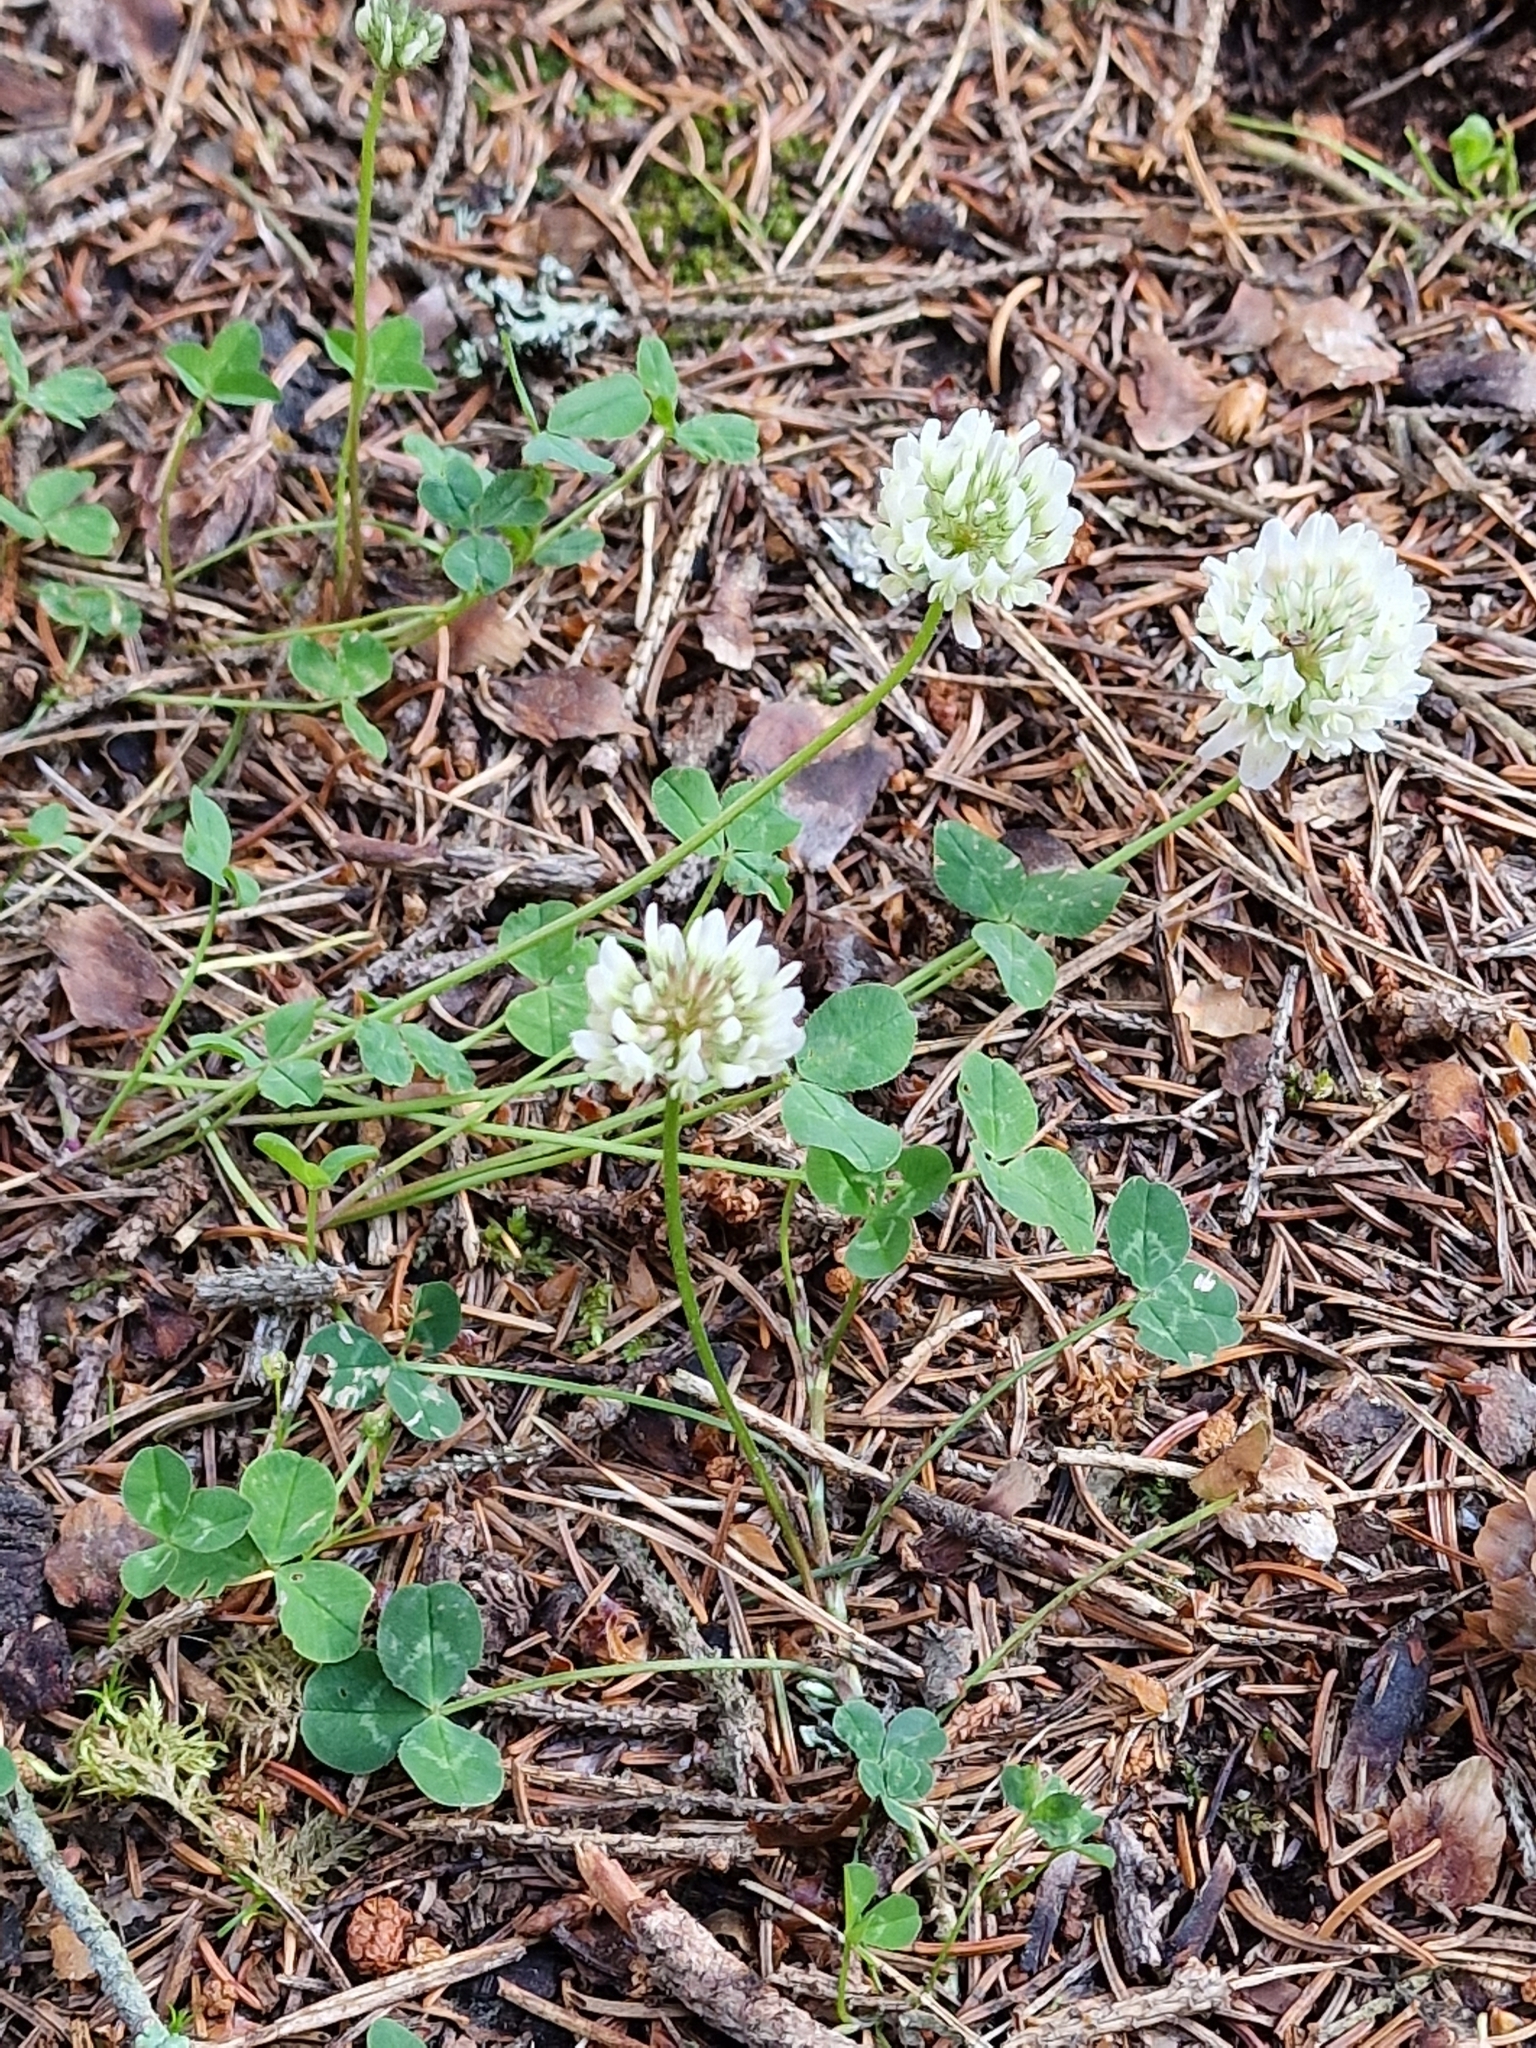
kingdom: Plantae
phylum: Tracheophyta
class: Magnoliopsida
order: Fabales
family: Fabaceae
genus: Trifolium
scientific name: Trifolium repens
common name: White clover
